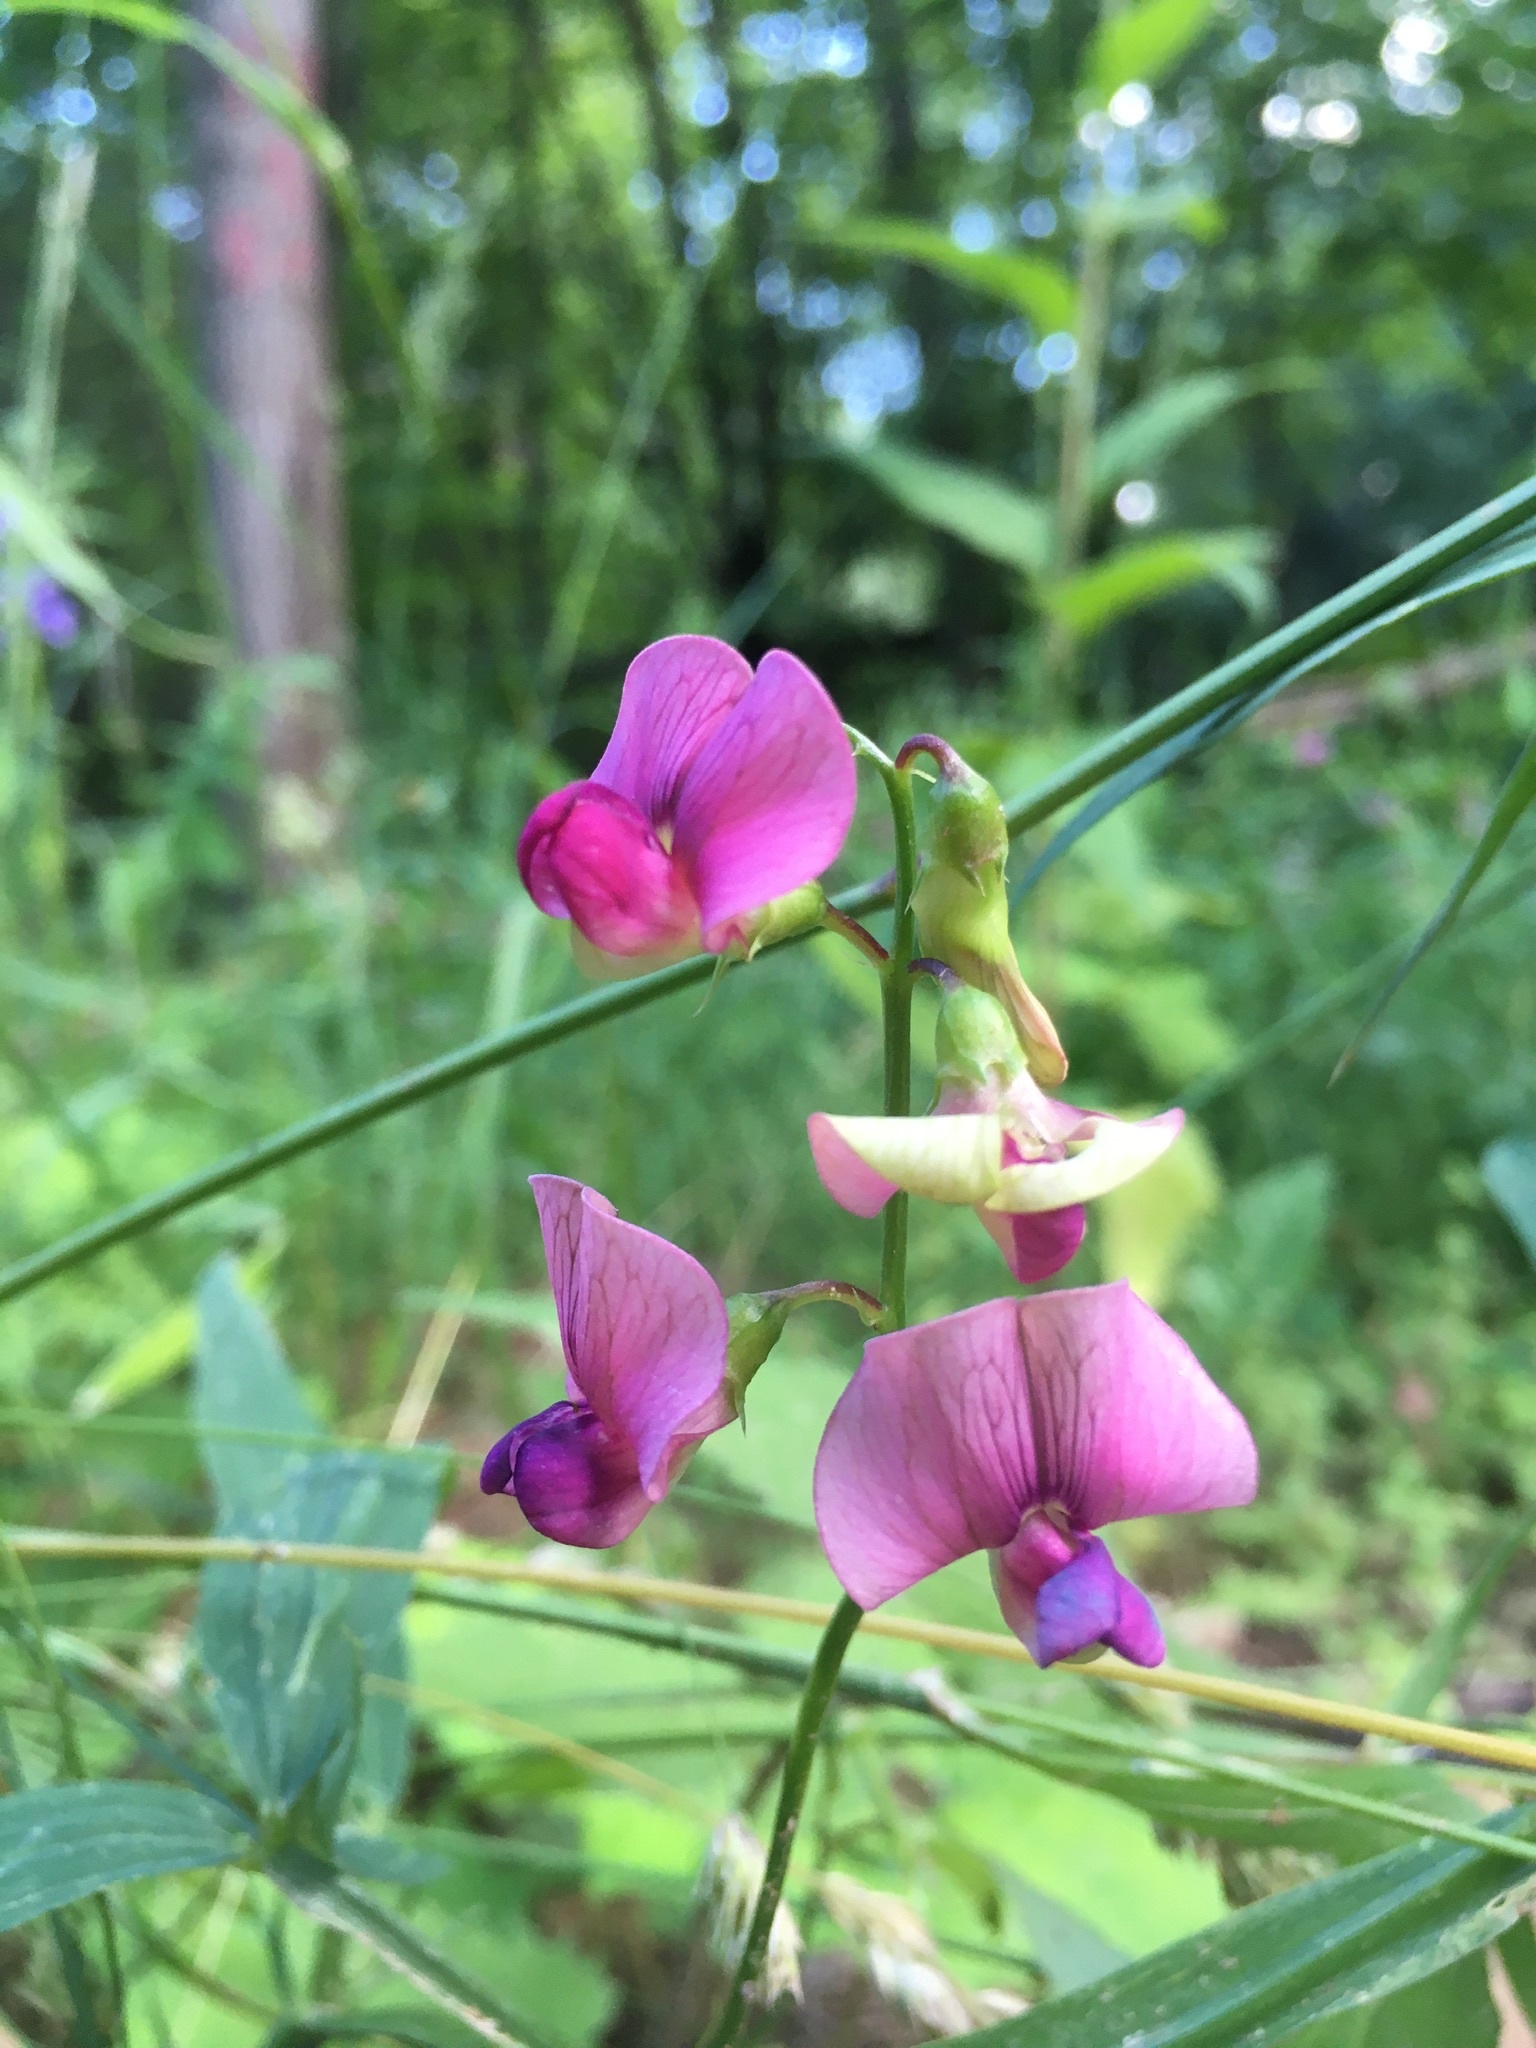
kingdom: Plantae
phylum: Tracheophyta
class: Magnoliopsida
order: Fabales
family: Fabaceae
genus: Lathyrus
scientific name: Lathyrus sylvestris
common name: Flat pea
